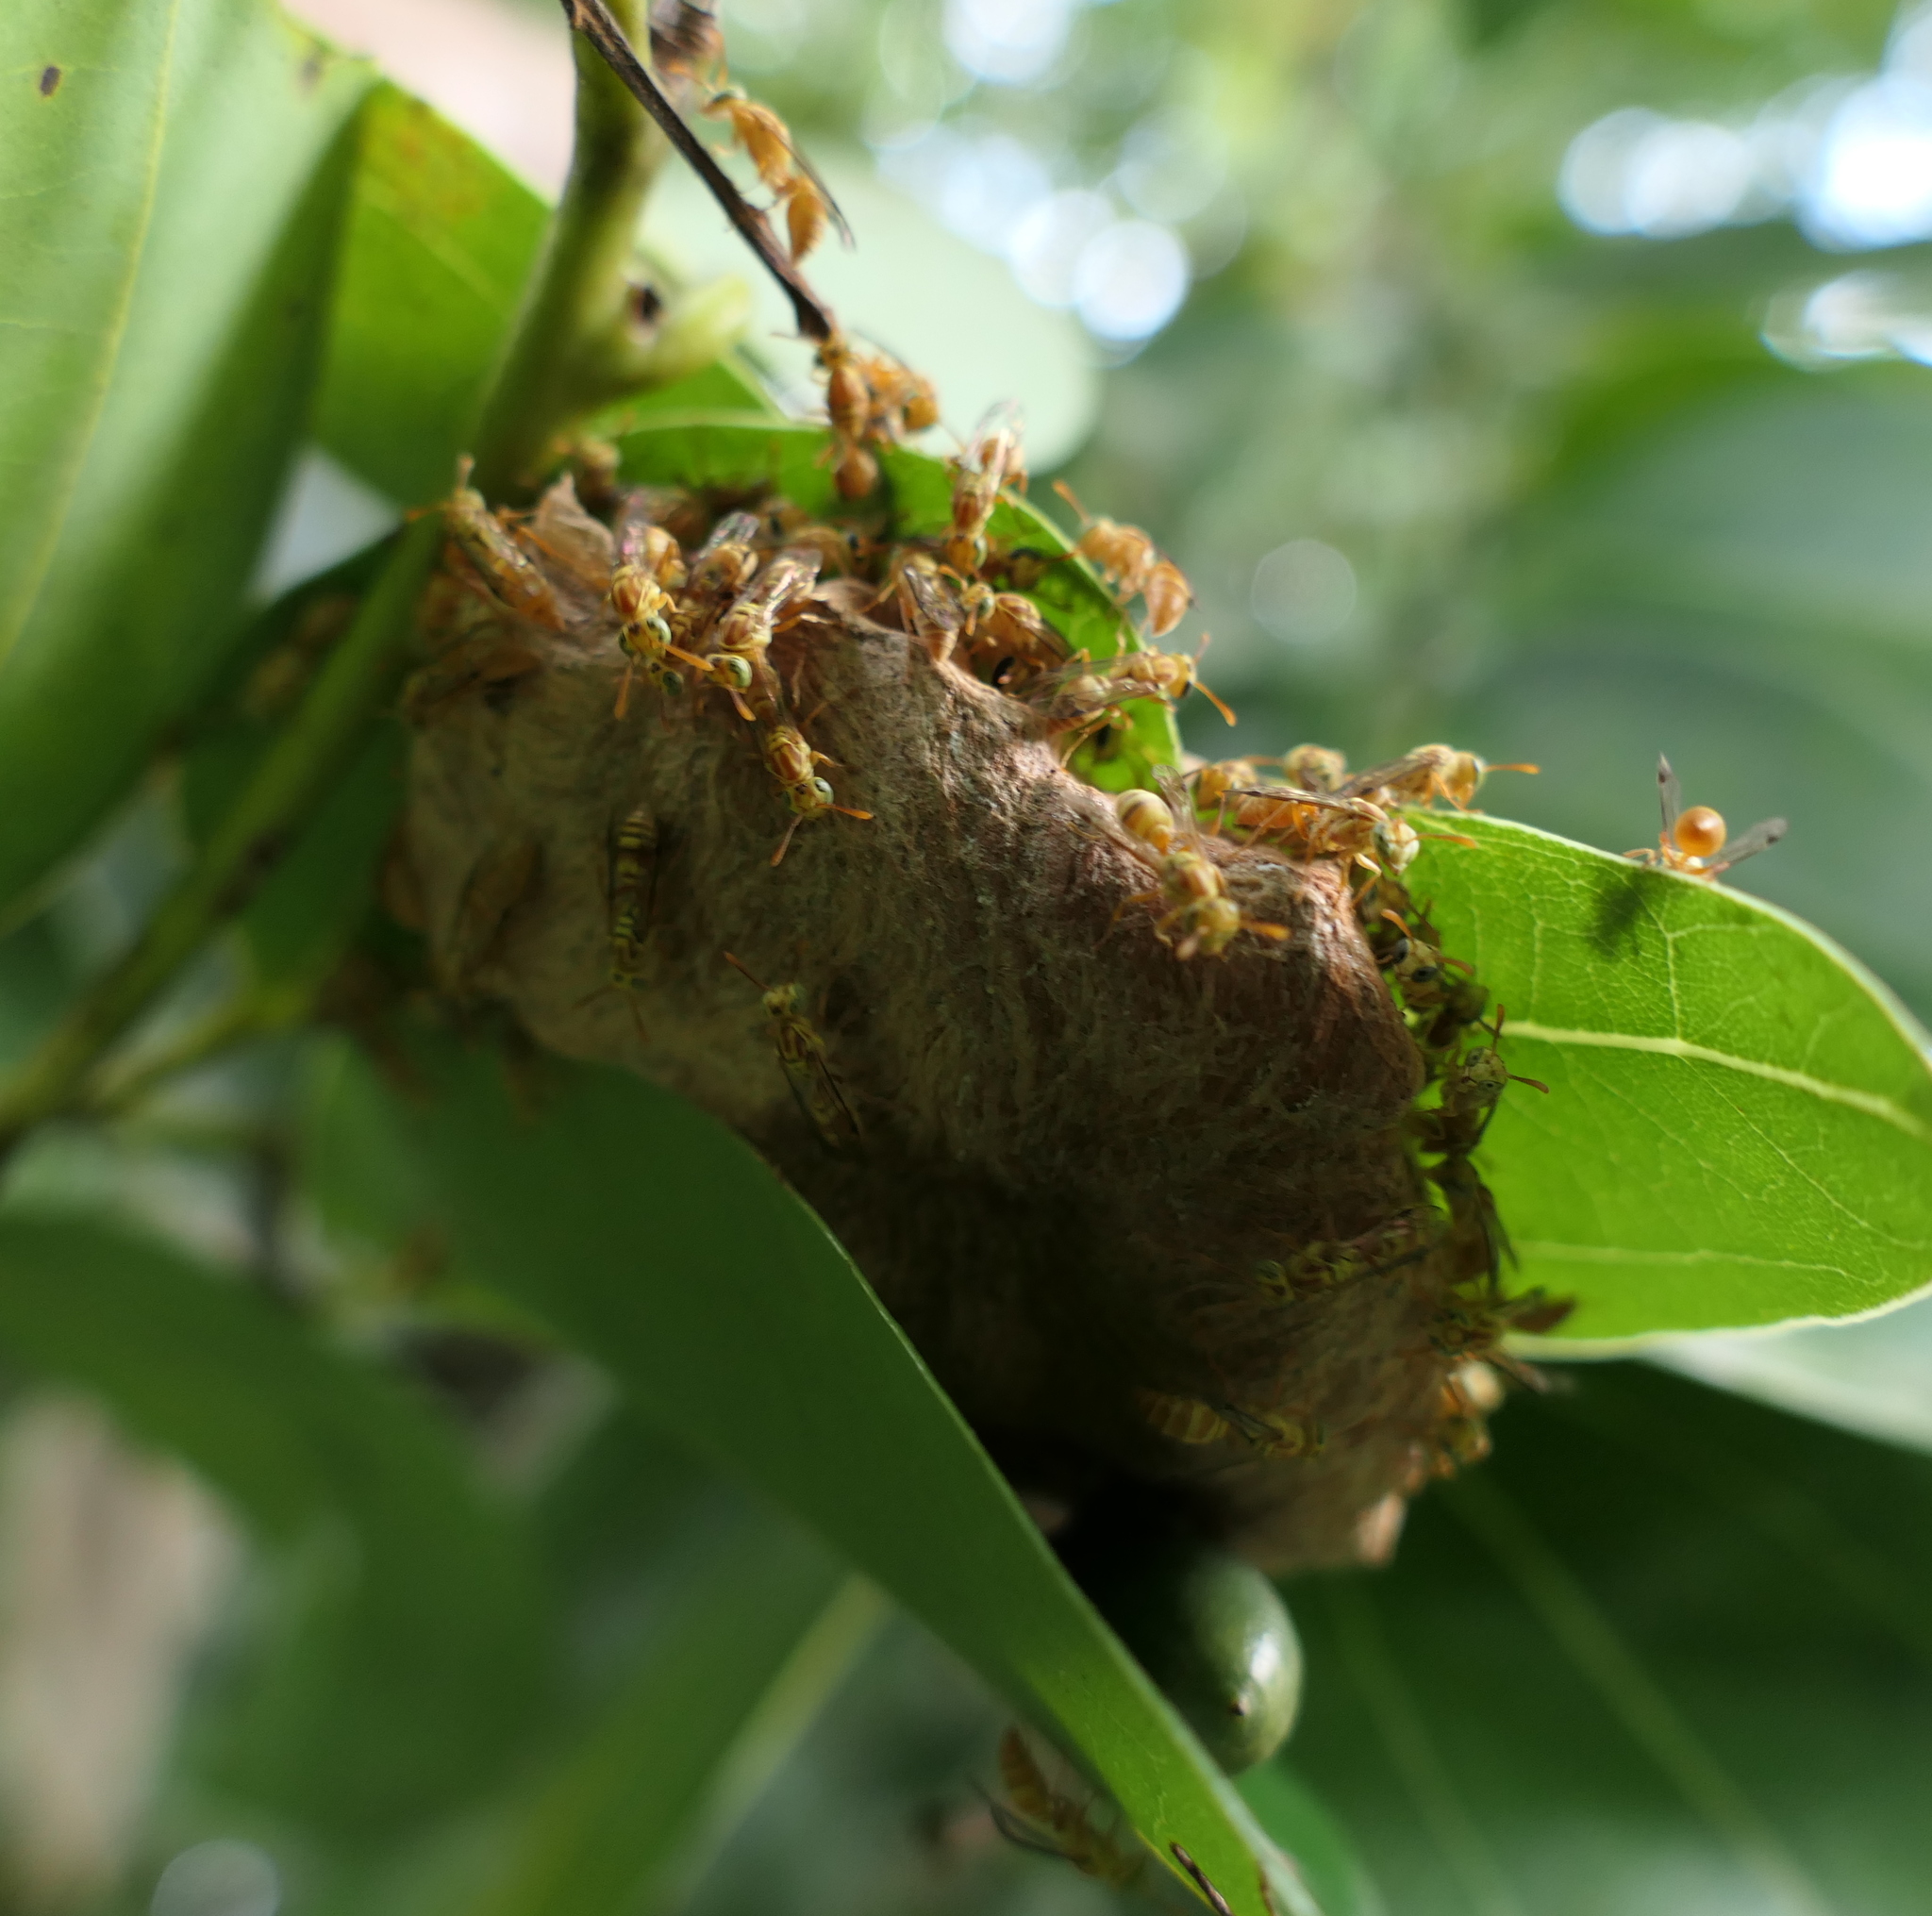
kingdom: Animalia
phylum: Arthropoda
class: Insecta
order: Hymenoptera
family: Vespidae
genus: Protopolybia
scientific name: Protopolybia potiguara
